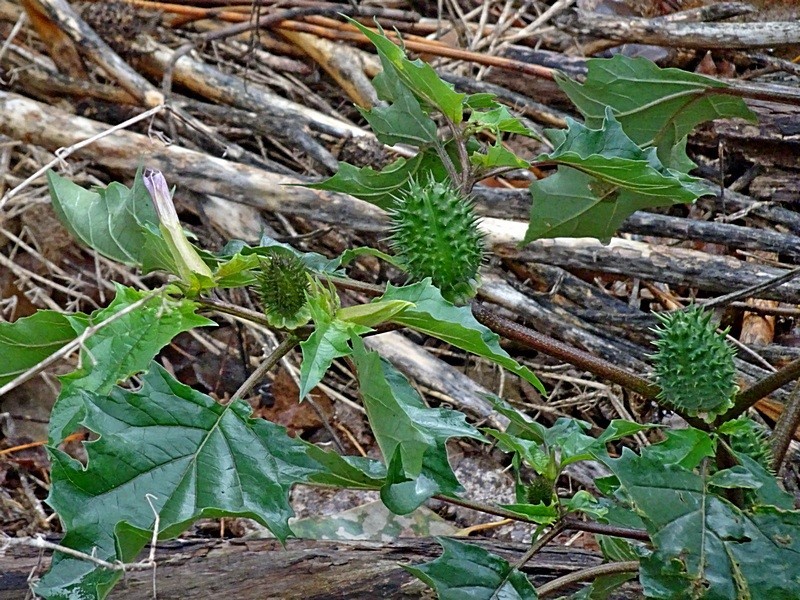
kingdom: Plantae
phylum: Tracheophyta
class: Magnoliopsida
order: Solanales
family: Solanaceae
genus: Datura
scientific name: Datura stramonium
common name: Thorn-apple
